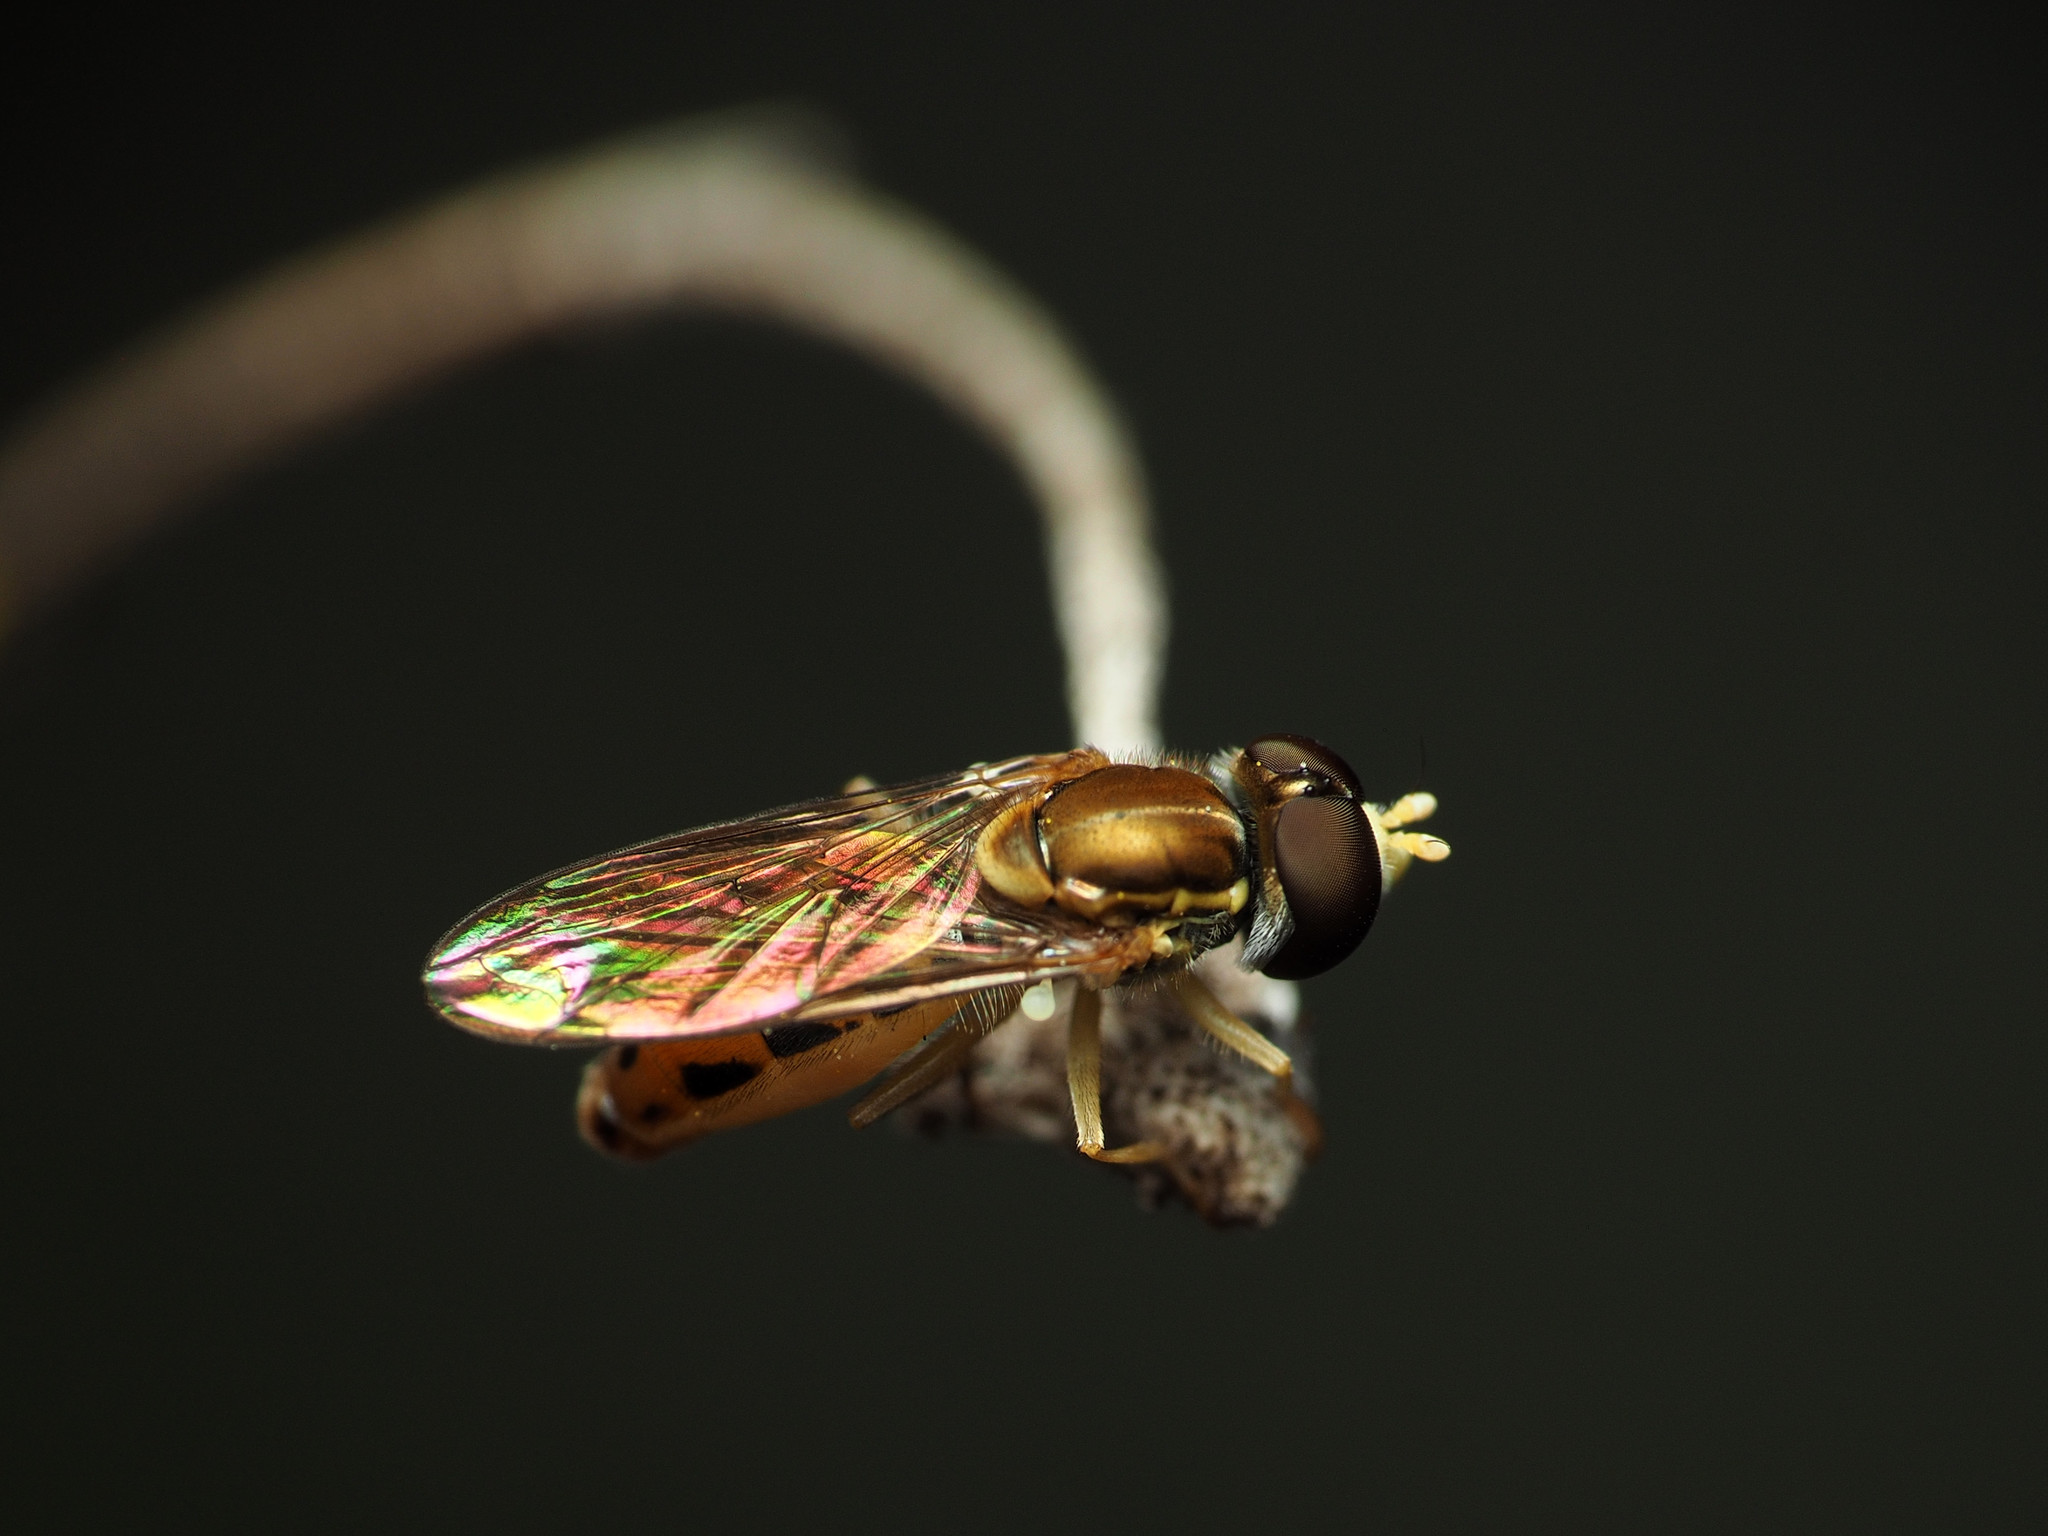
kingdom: Animalia
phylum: Arthropoda
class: Insecta
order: Diptera
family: Syrphidae
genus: Toxomerus
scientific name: Toxomerus marginatus
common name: Syrphid fly
